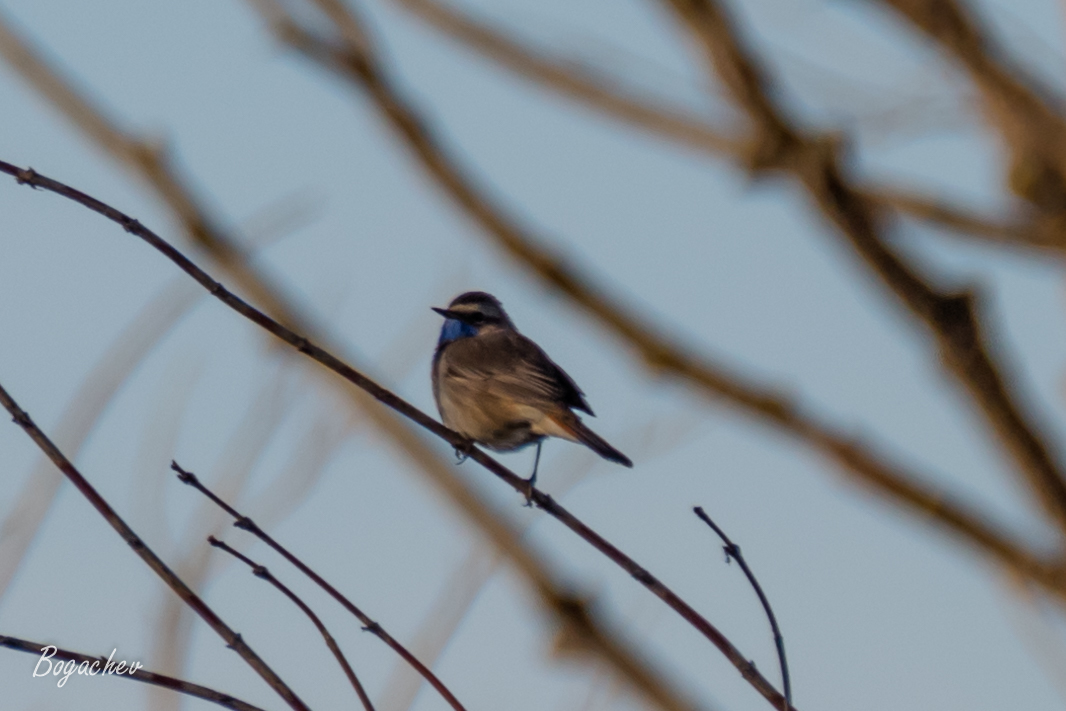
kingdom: Animalia
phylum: Chordata
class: Aves
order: Passeriformes
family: Muscicapidae
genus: Luscinia
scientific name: Luscinia svecica
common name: Bluethroat
